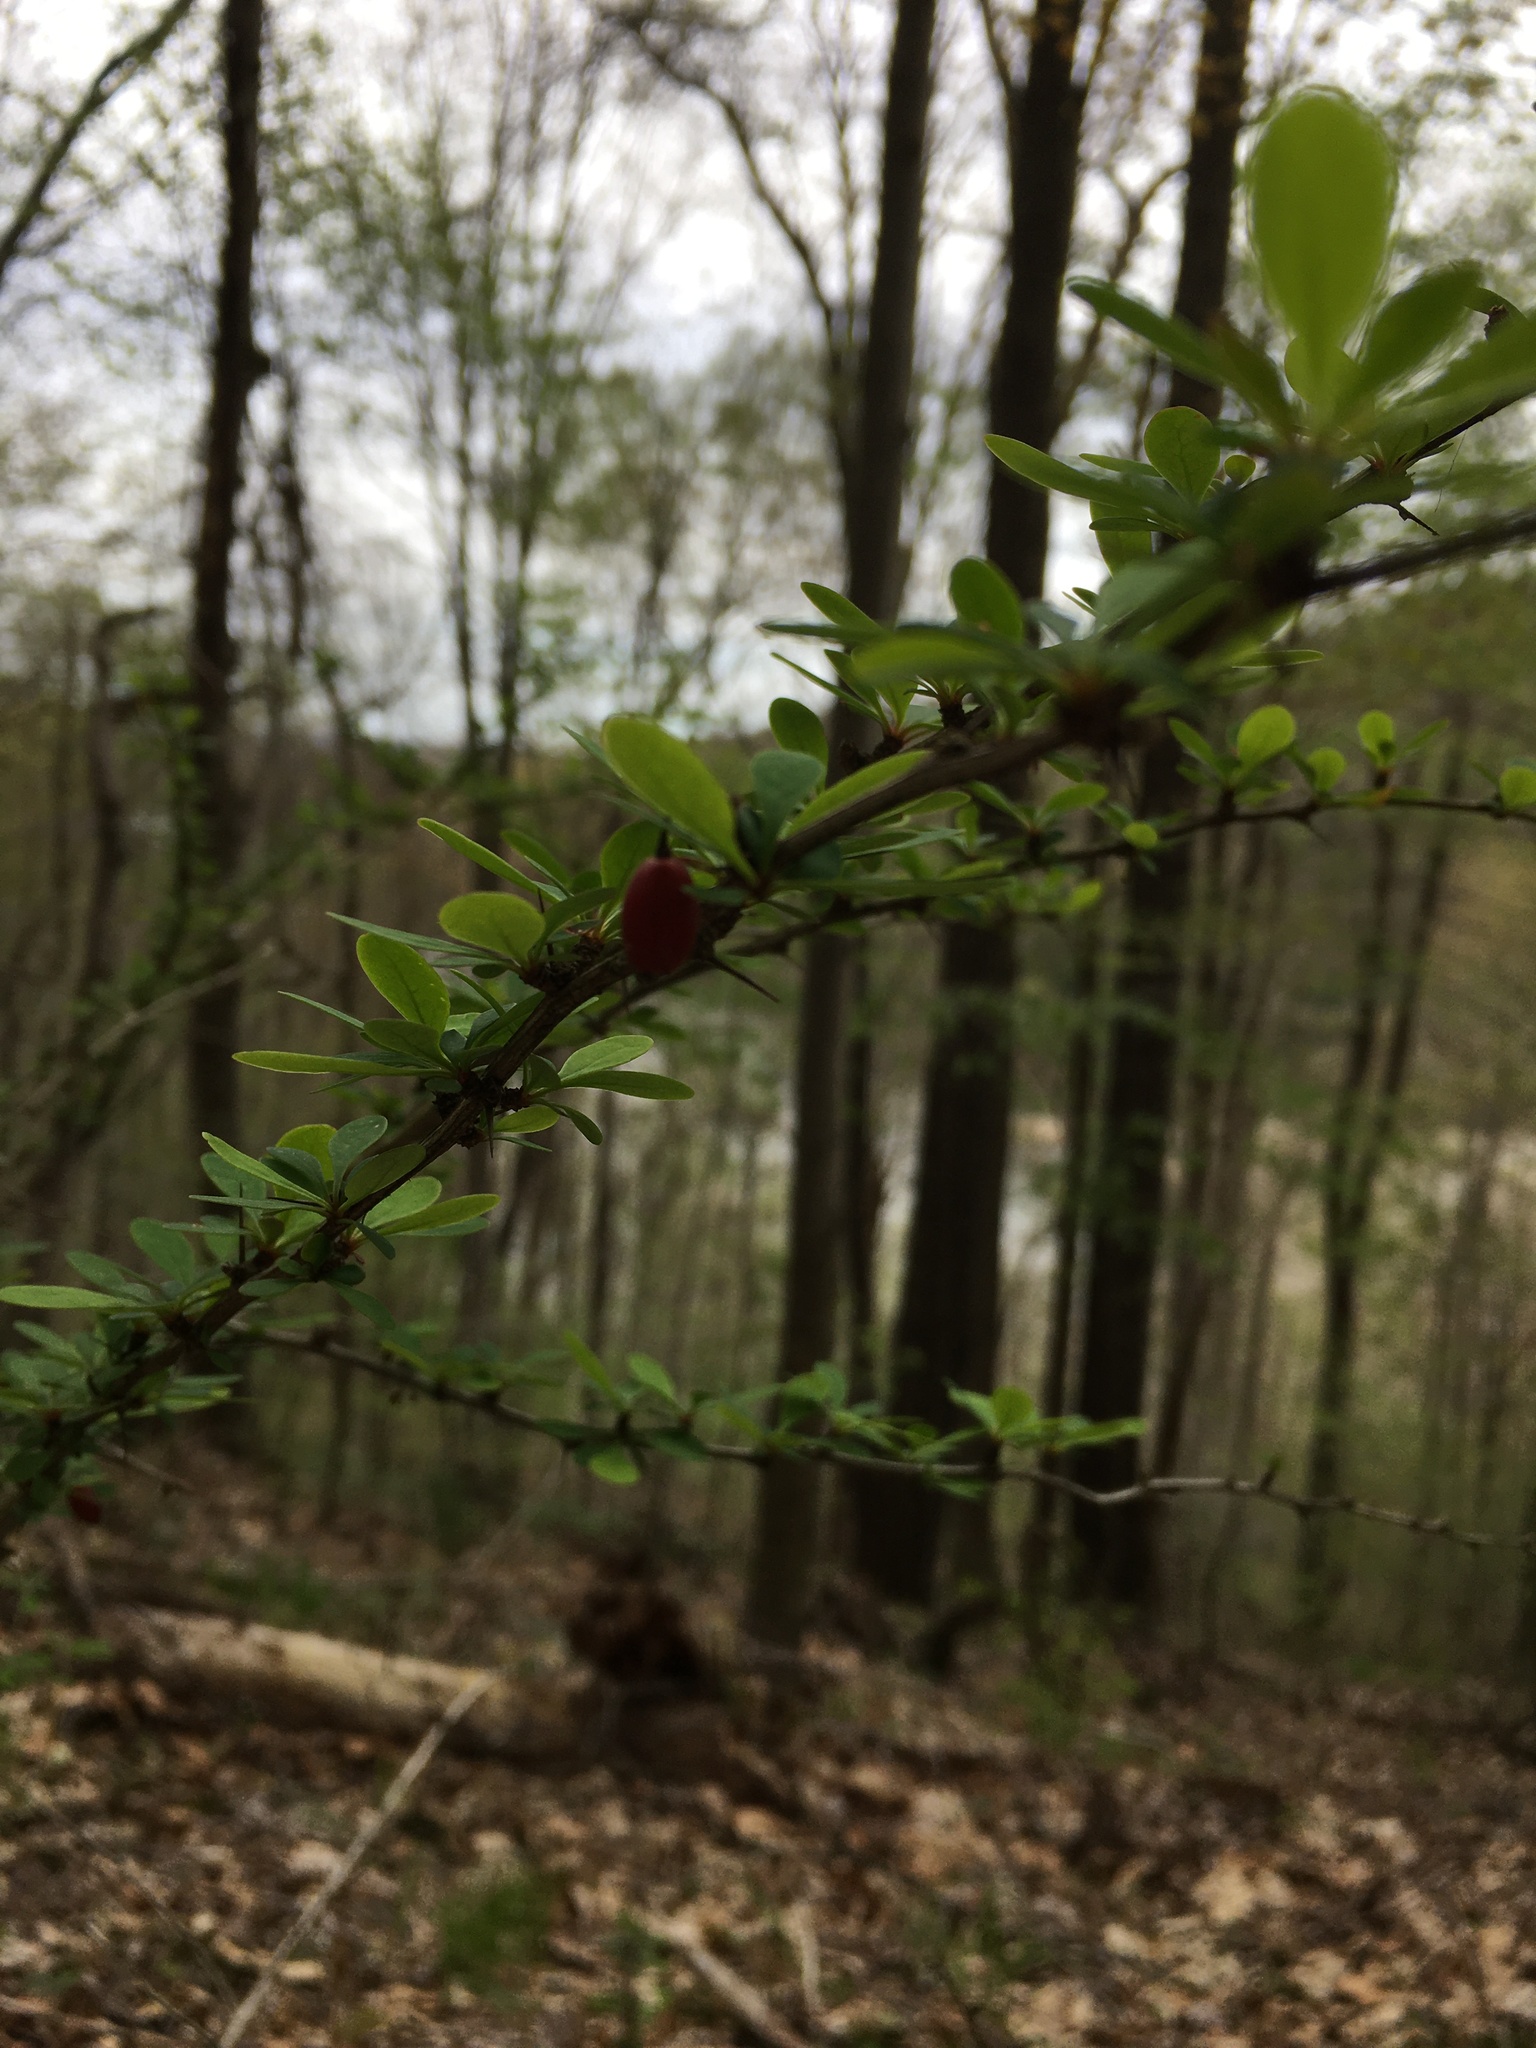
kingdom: Plantae
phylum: Tracheophyta
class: Magnoliopsida
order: Ranunculales
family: Berberidaceae
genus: Berberis
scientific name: Berberis thunbergii
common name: Japanese barberry
